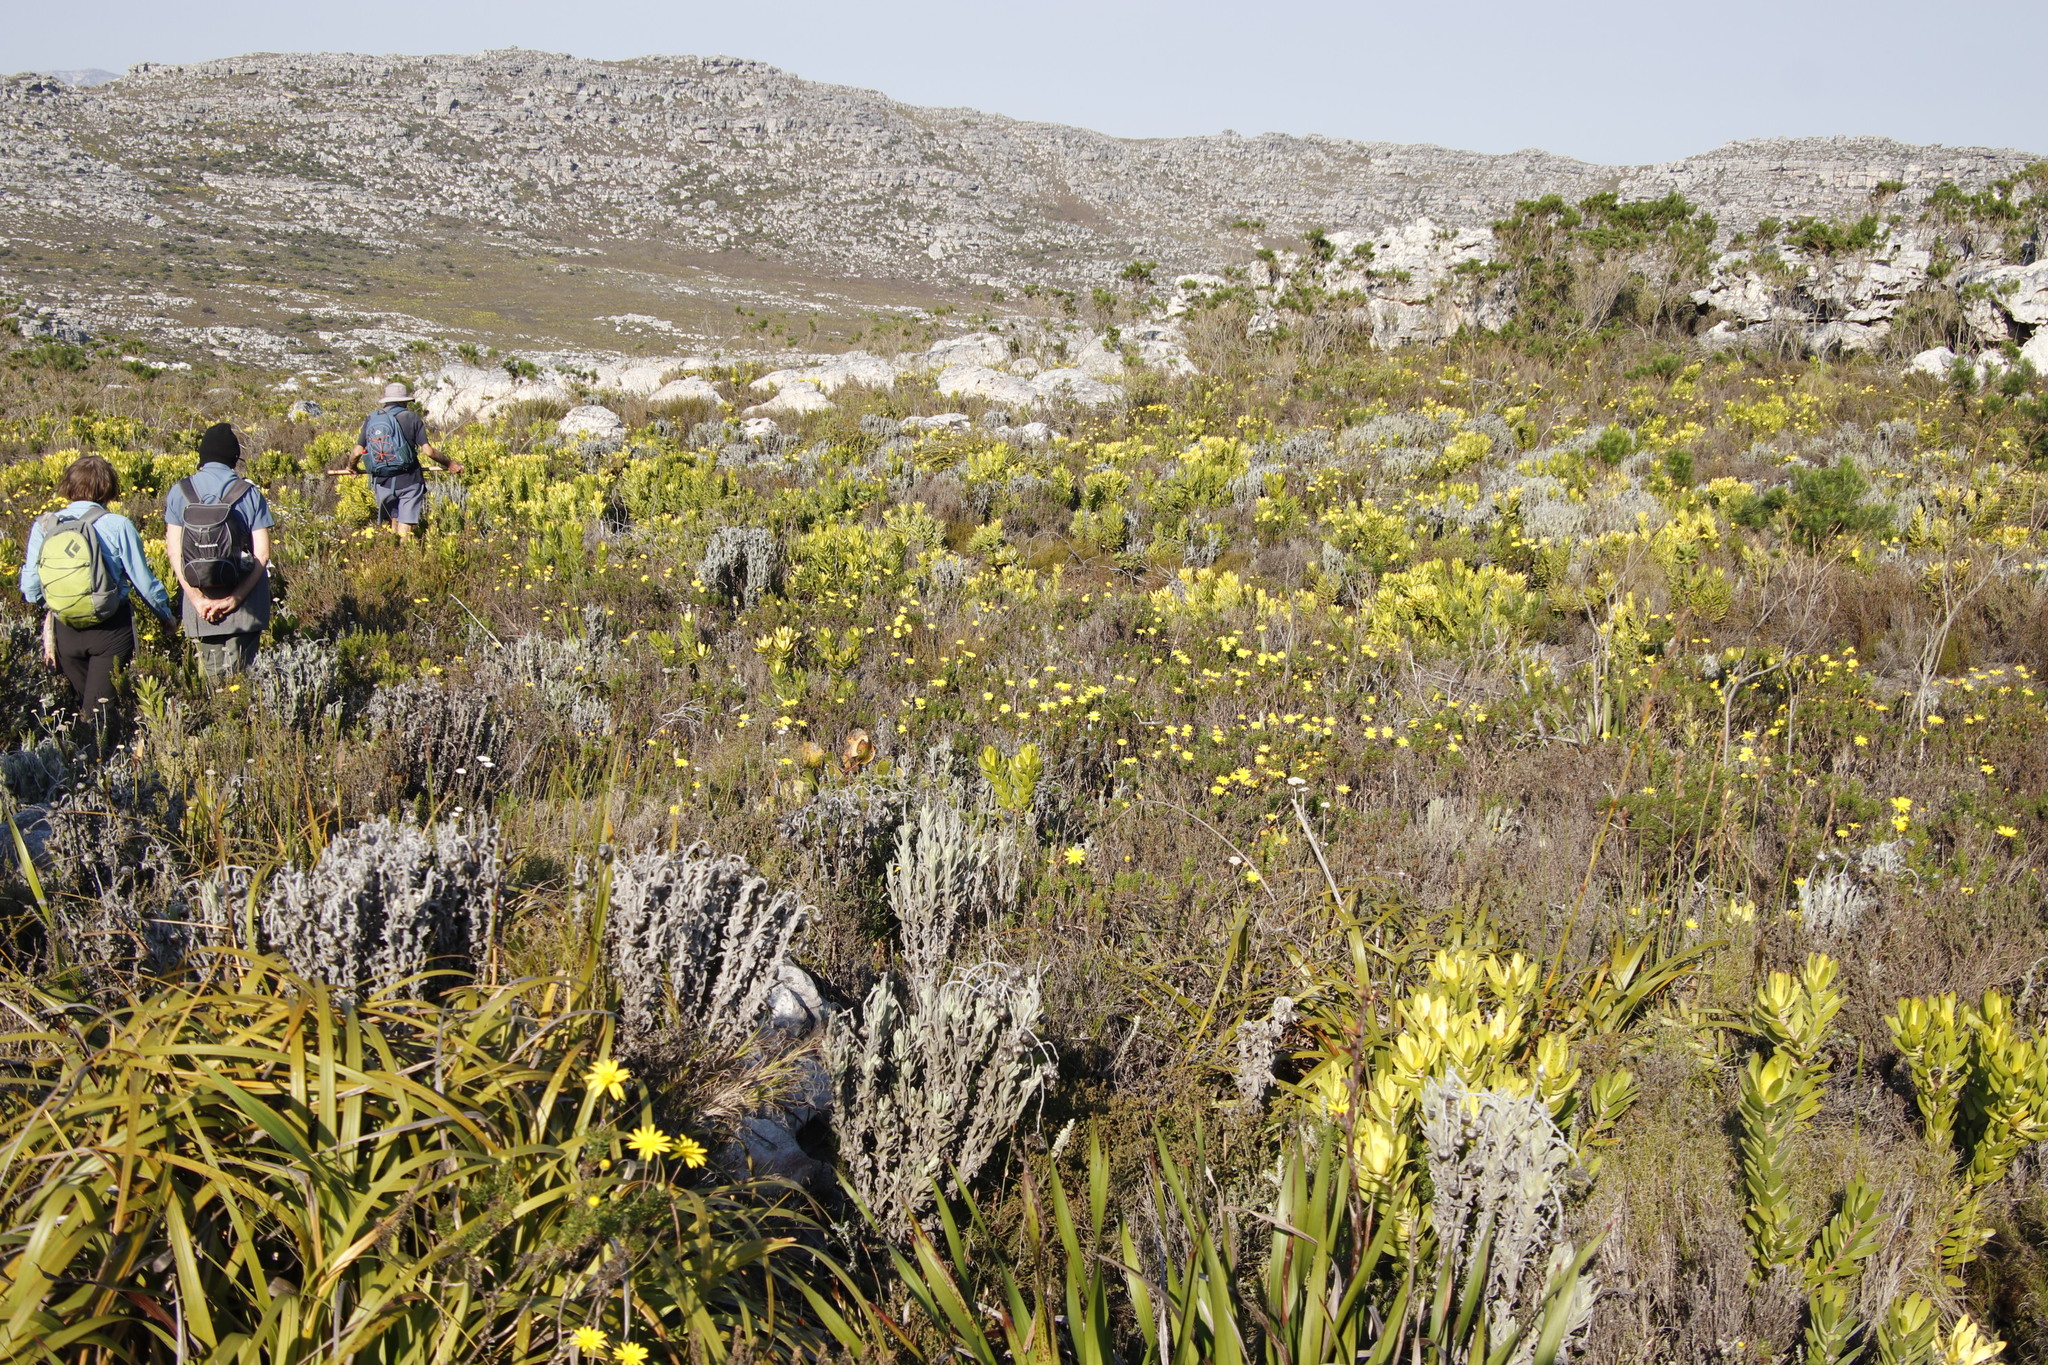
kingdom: Plantae
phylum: Tracheophyta
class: Magnoliopsida
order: Asterales
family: Asteraceae
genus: Euryops
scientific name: Euryops abrotanifolius
